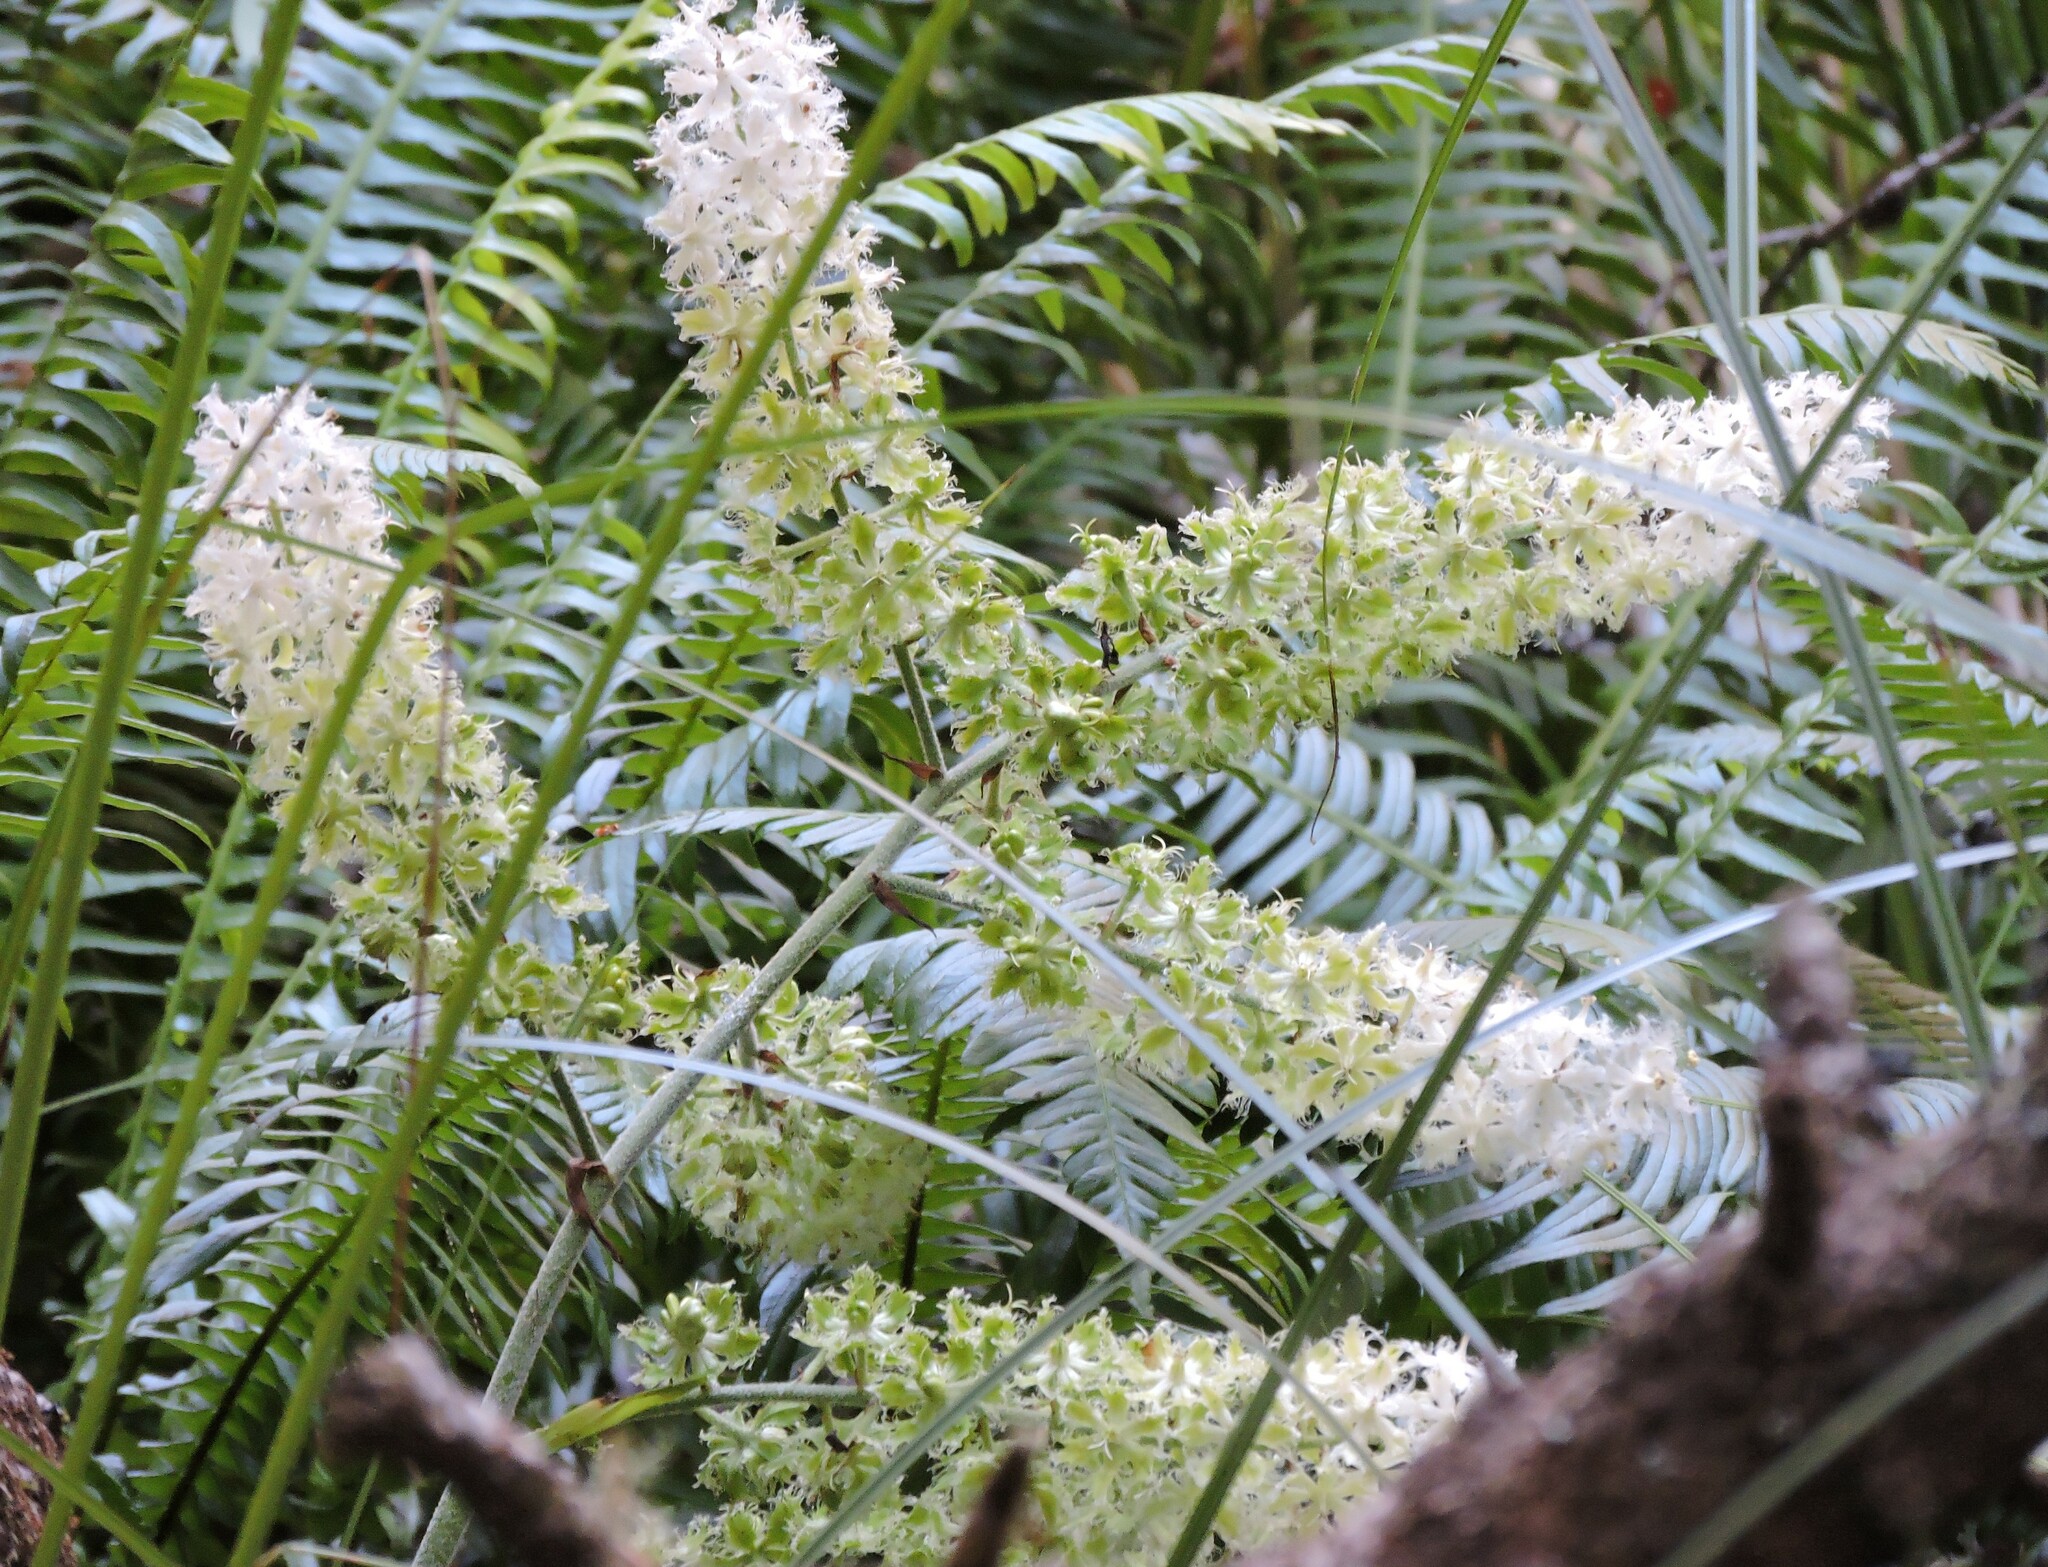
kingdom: Plantae
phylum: Tracheophyta
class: Liliopsida
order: Liliales
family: Melanthiaceae
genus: Veratrum
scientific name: Veratrum fimbriatum
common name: Fringe false hellobore
